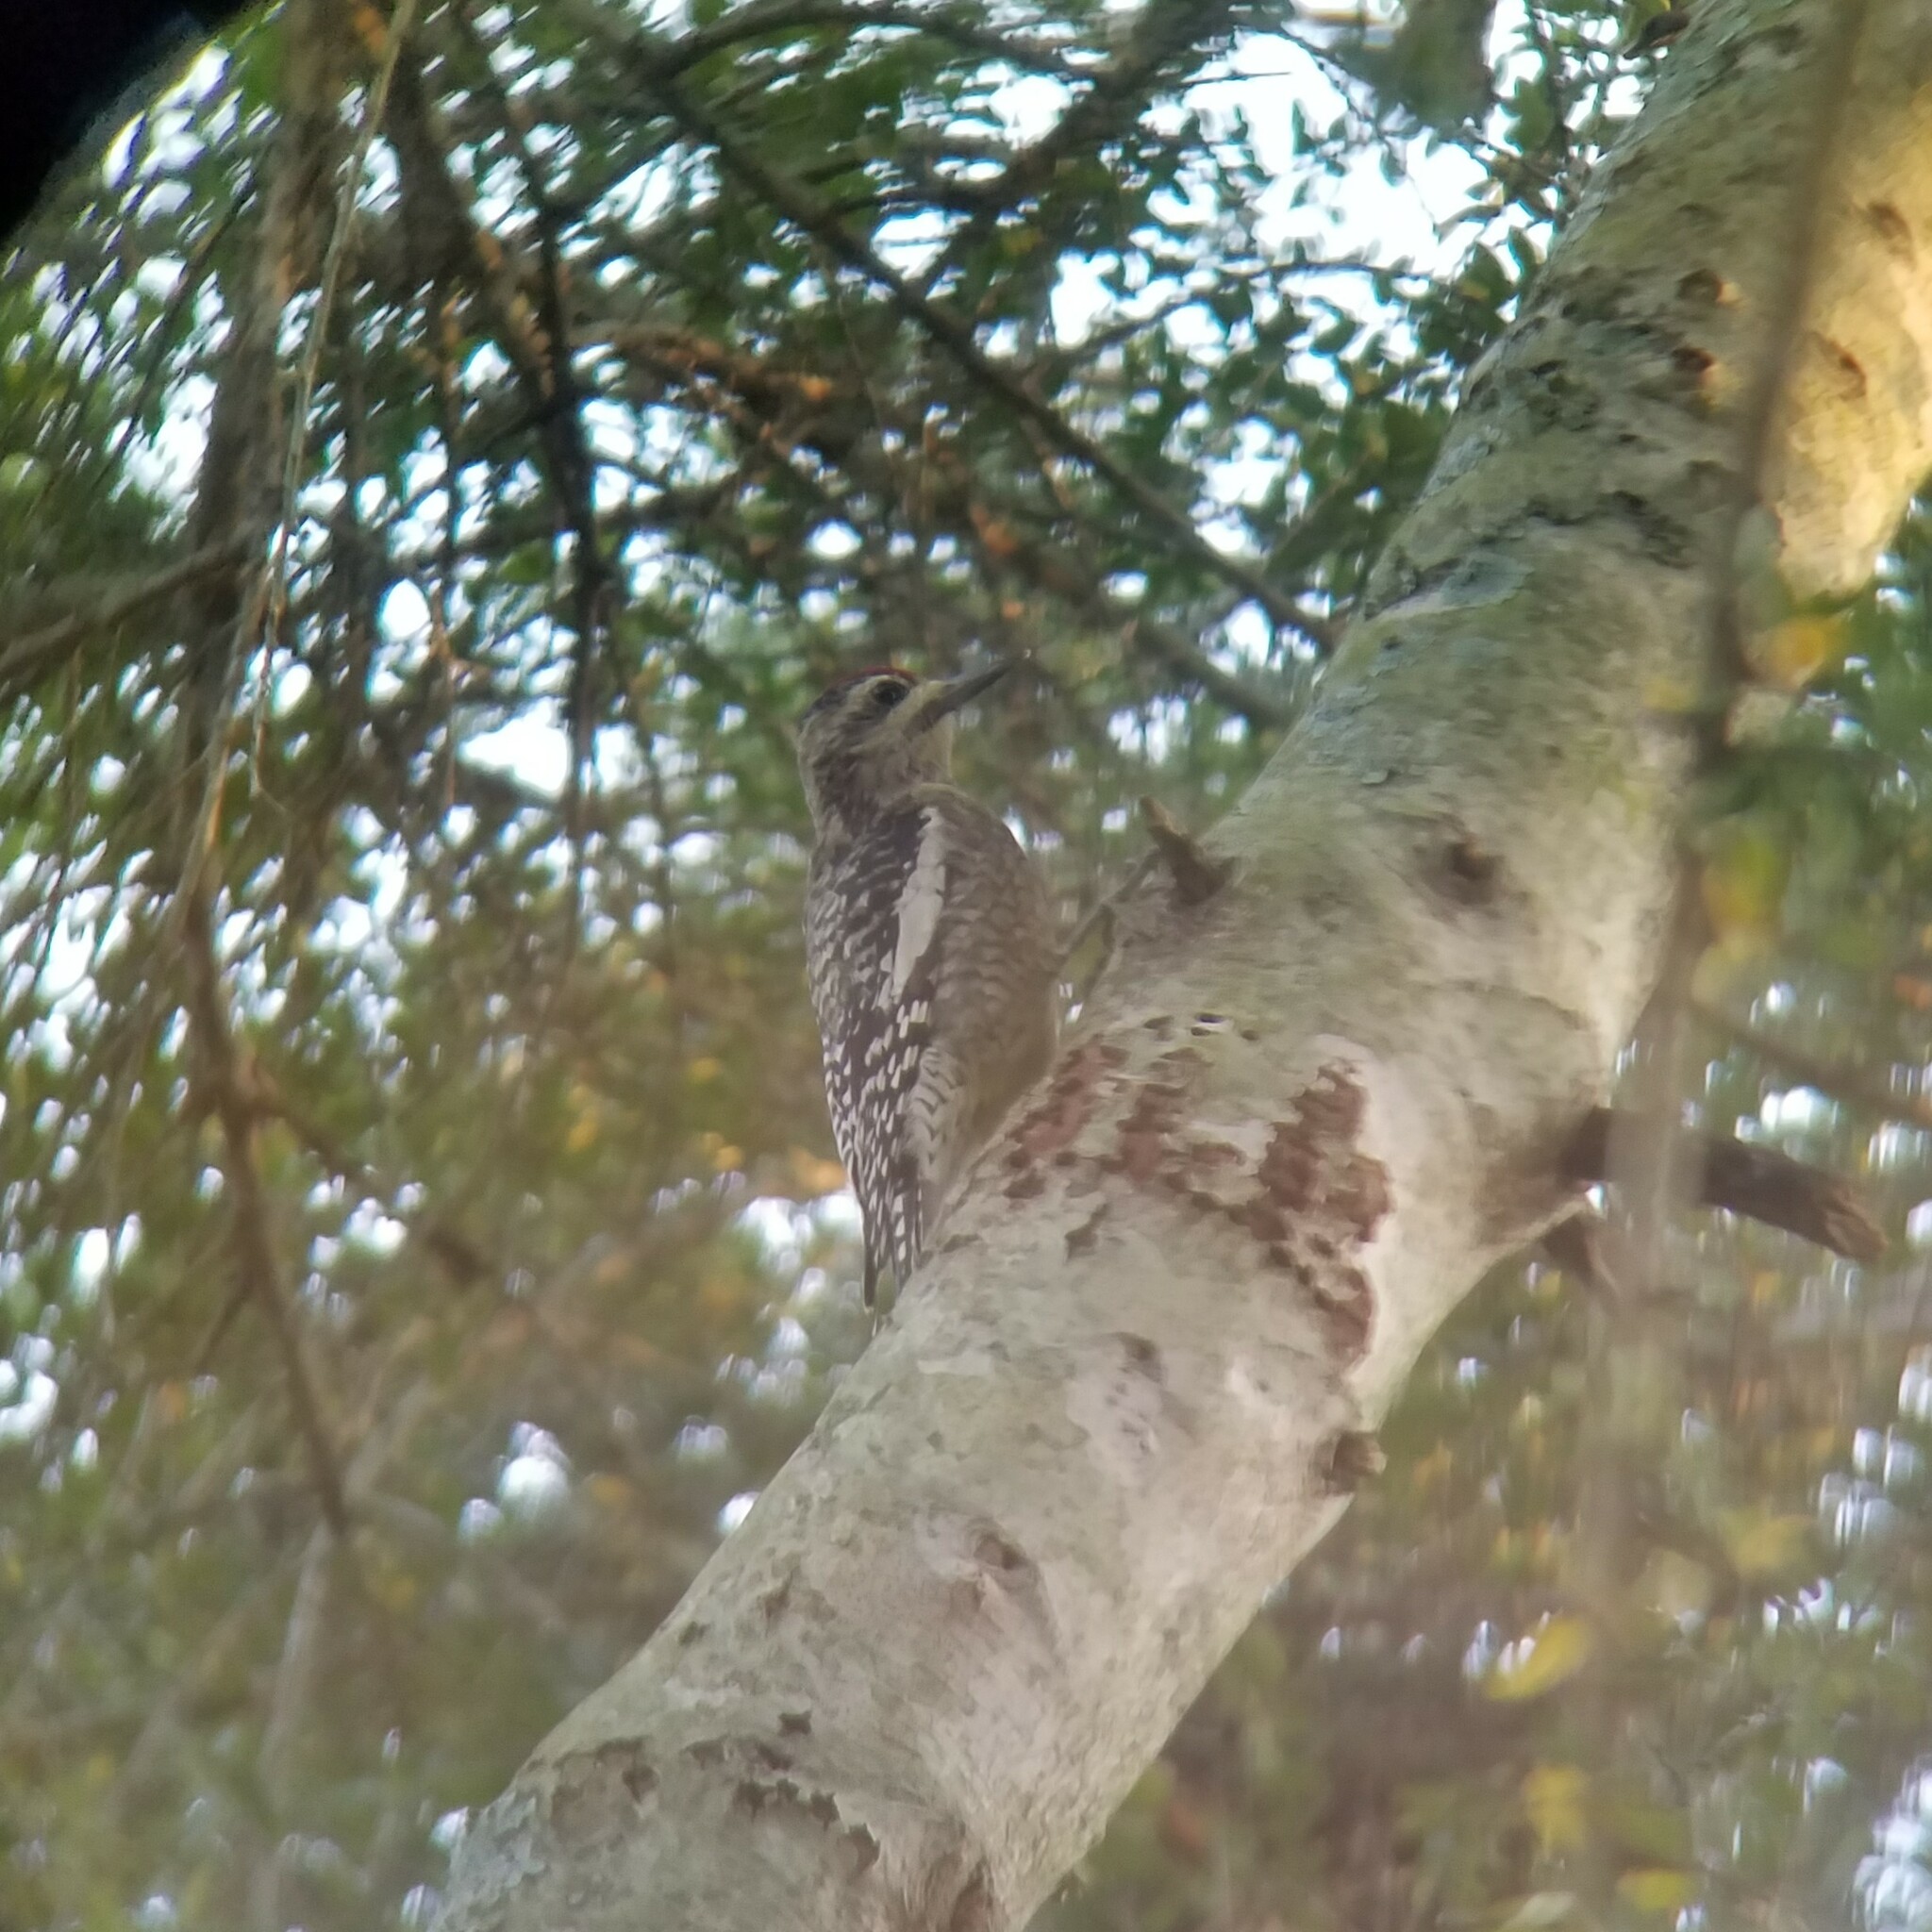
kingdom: Animalia
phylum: Chordata
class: Aves
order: Piciformes
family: Picidae
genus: Sphyrapicus
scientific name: Sphyrapicus varius
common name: Yellow-bellied sapsucker
